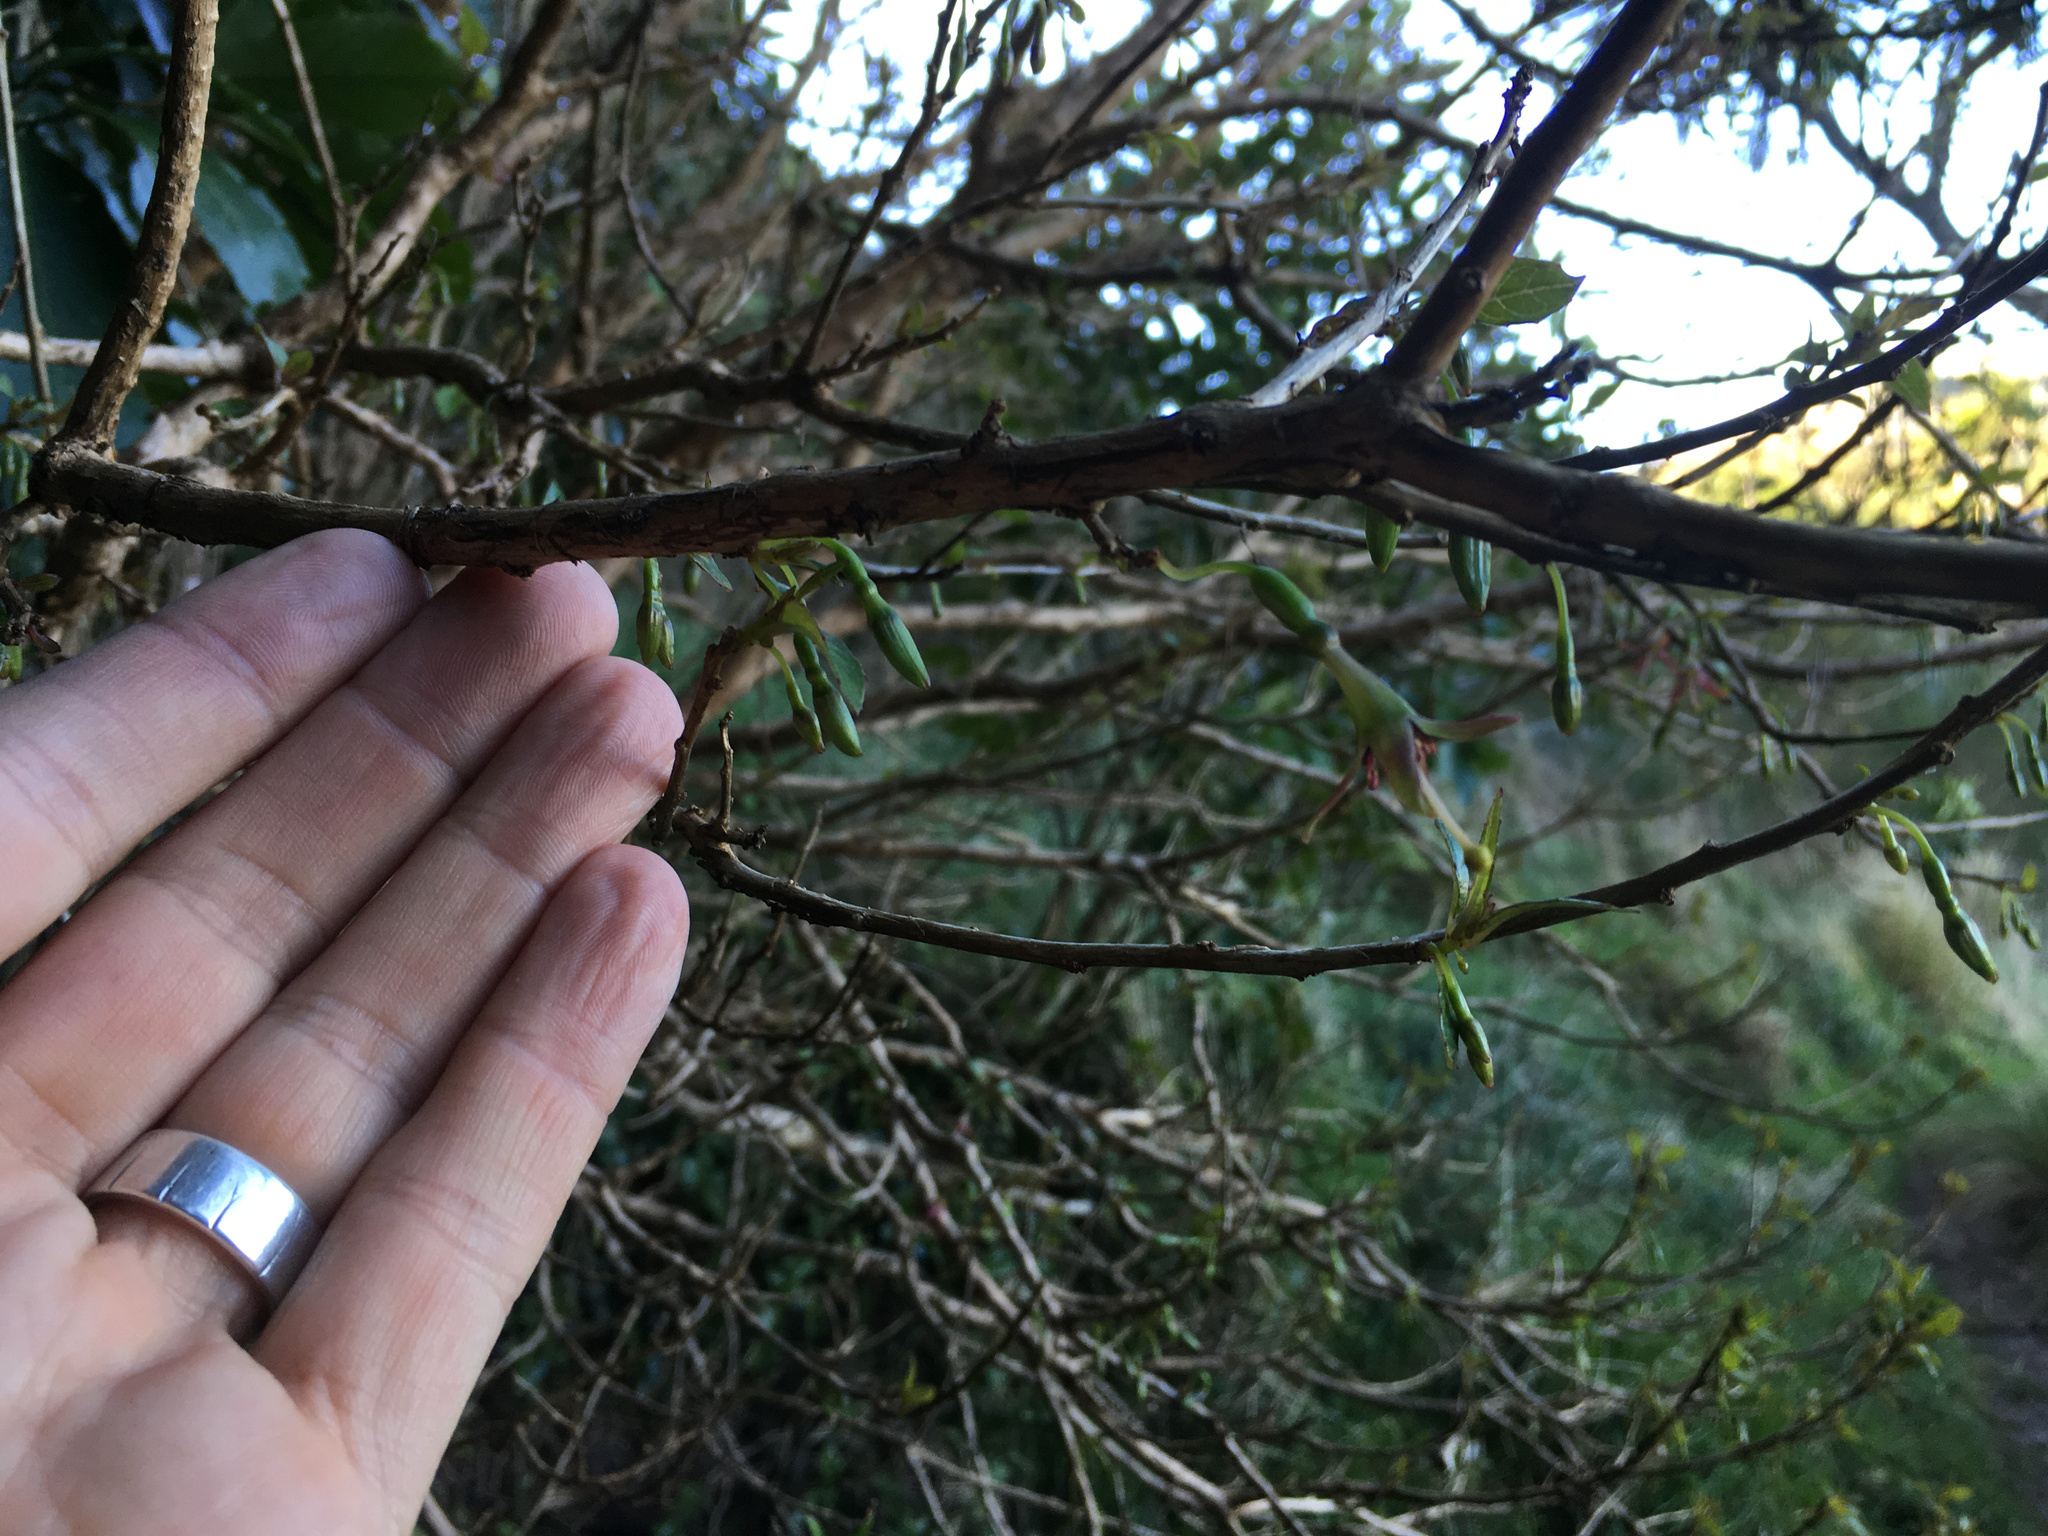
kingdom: Plantae
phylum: Tracheophyta
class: Magnoliopsida
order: Myrtales
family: Onagraceae
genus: Fuchsia
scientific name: Fuchsia excorticata
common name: Tree fuchsia
